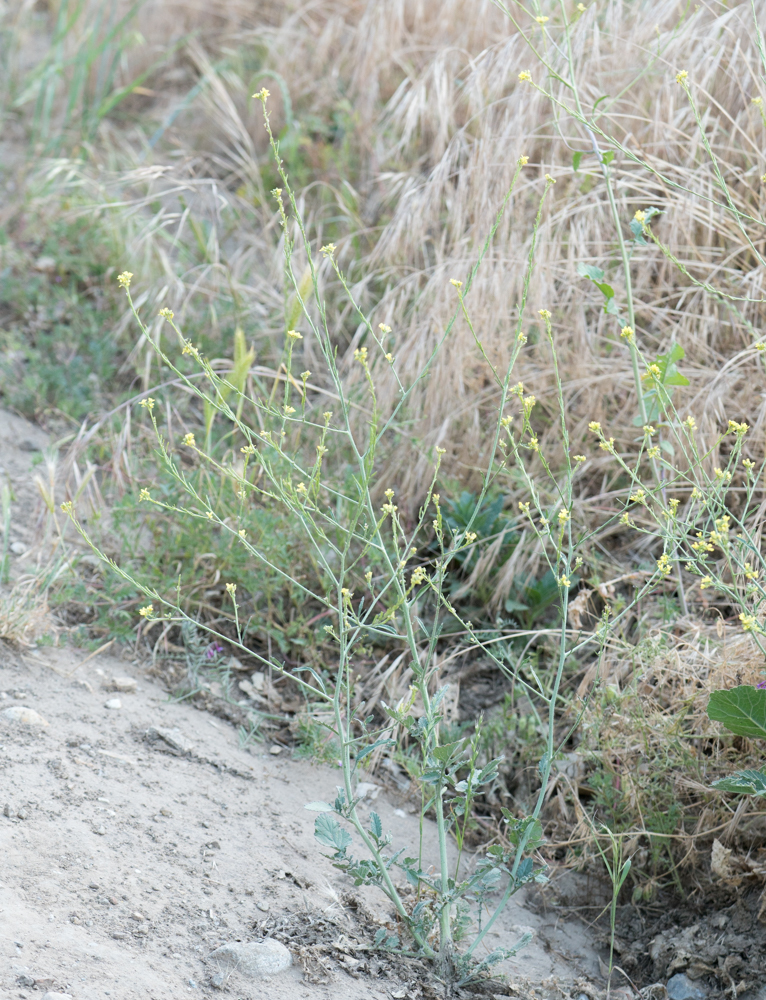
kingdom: Plantae
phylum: Tracheophyta
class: Magnoliopsida
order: Brassicales
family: Brassicaceae
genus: Hirschfeldia
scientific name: Hirschfeldia incana
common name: Hoary mustard
